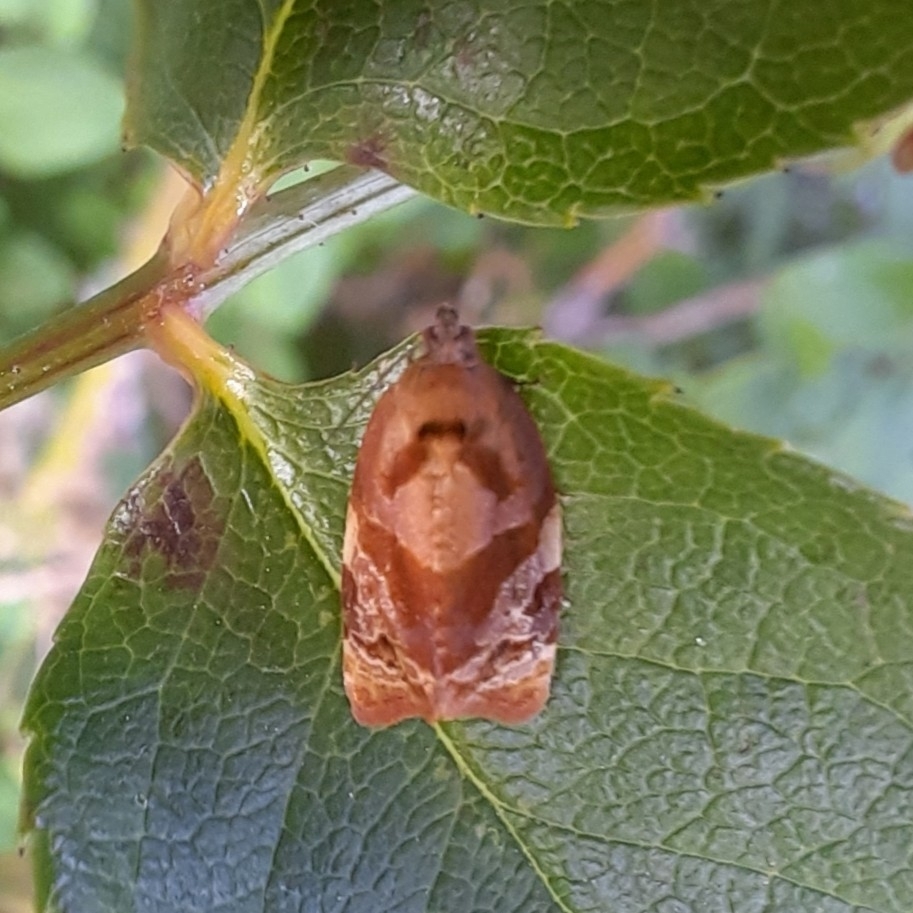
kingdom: Animalia
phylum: Arthropoda
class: Insecta
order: Lepidoptera
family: Tortricidae
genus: Archips
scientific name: Archips podana
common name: Large fruit-tree tortrix
